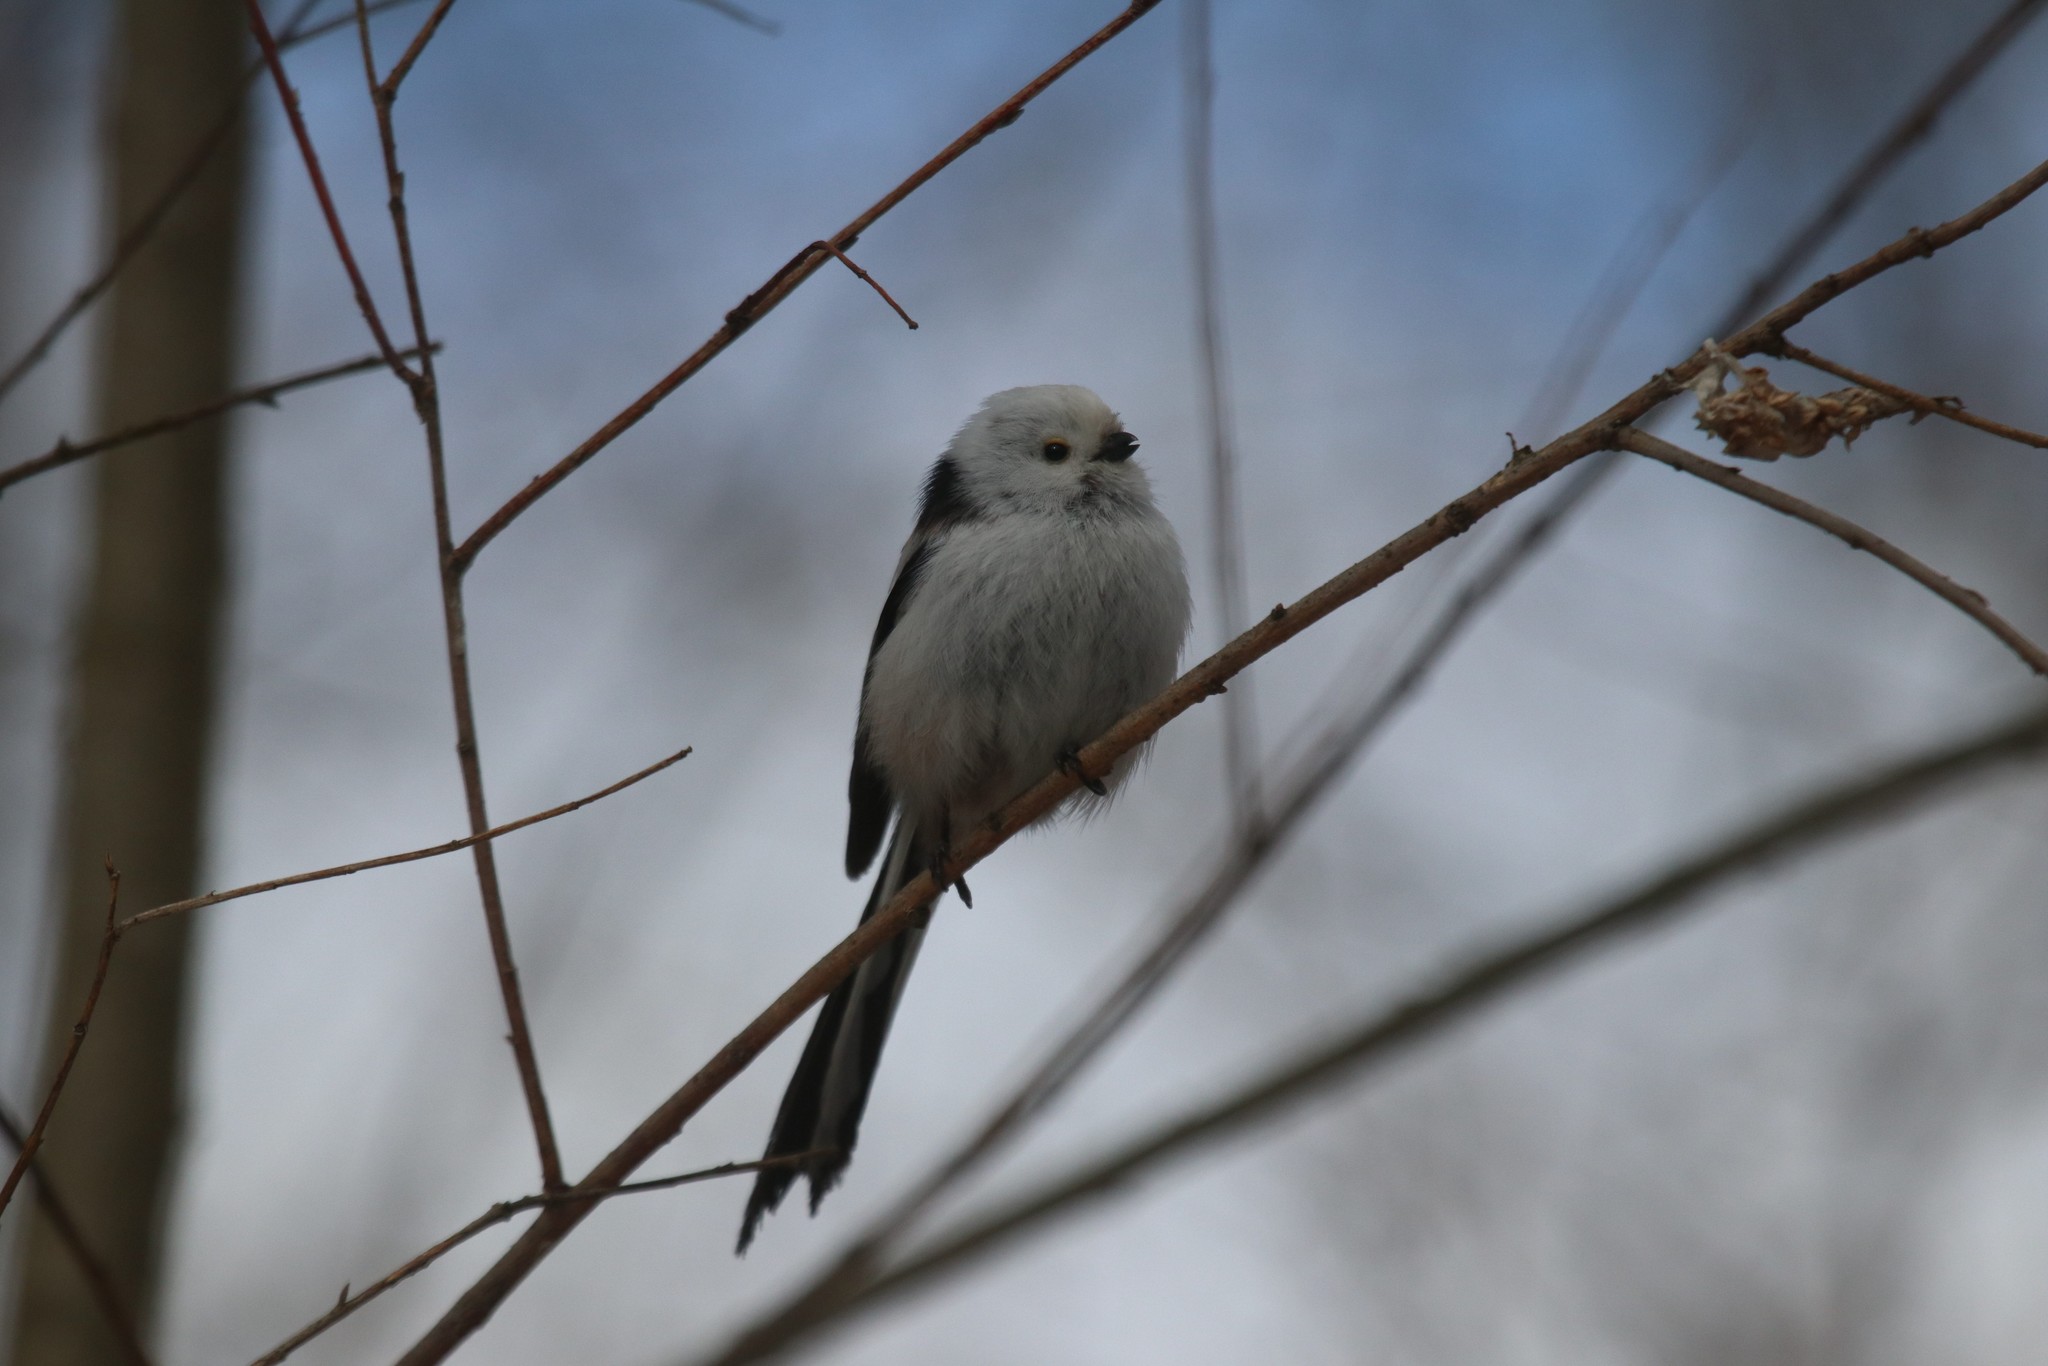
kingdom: Animalia
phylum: Chordata
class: Aves
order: Passeriformes
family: Aegithalidae
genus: Aegithalos
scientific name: Aegithalos caudatus
